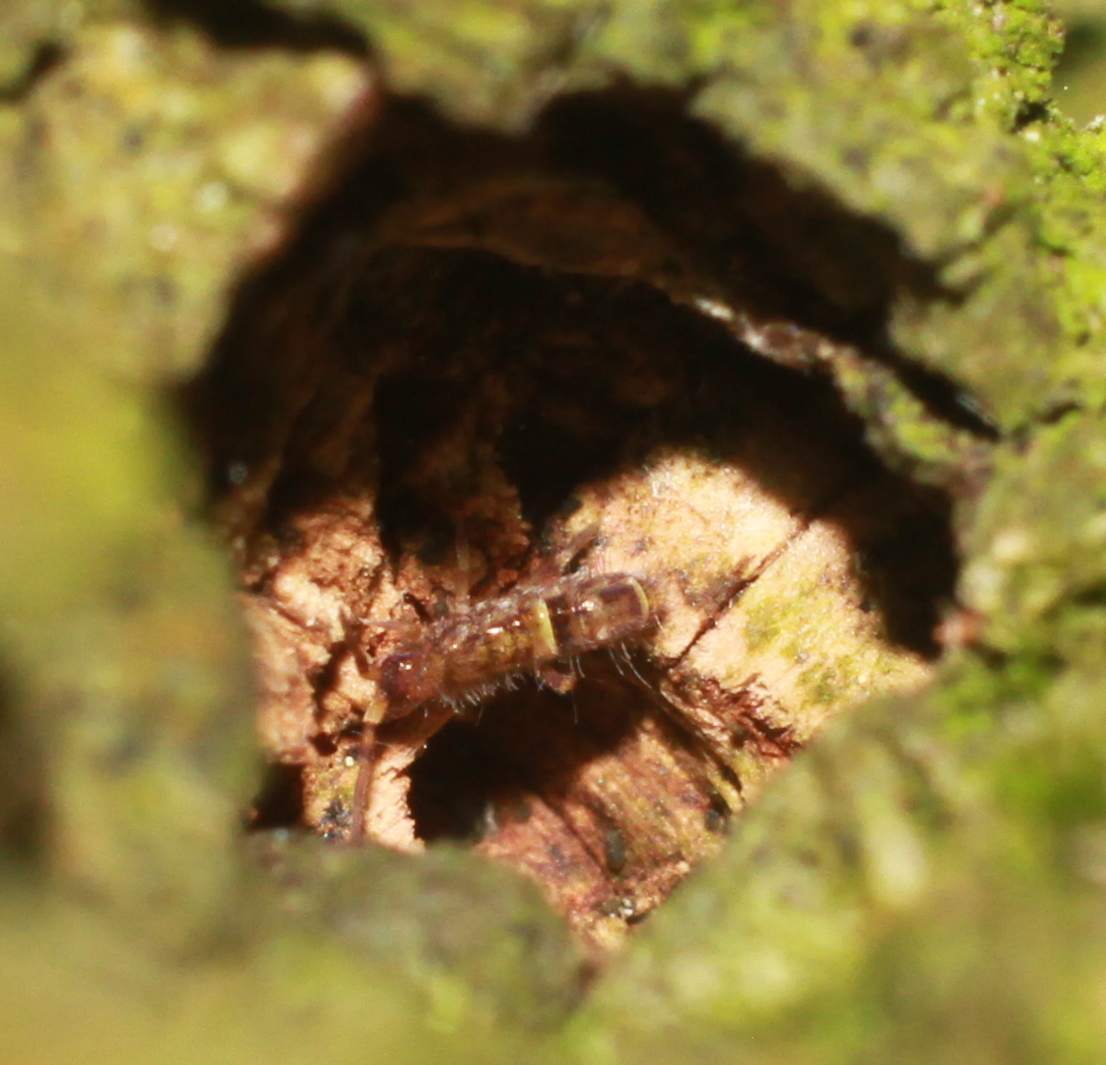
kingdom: Animalia
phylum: Arthropoda
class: Collembola
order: Entomobryomorpha
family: Orchesellidae
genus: Orchesella
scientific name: Orchesella cincta
